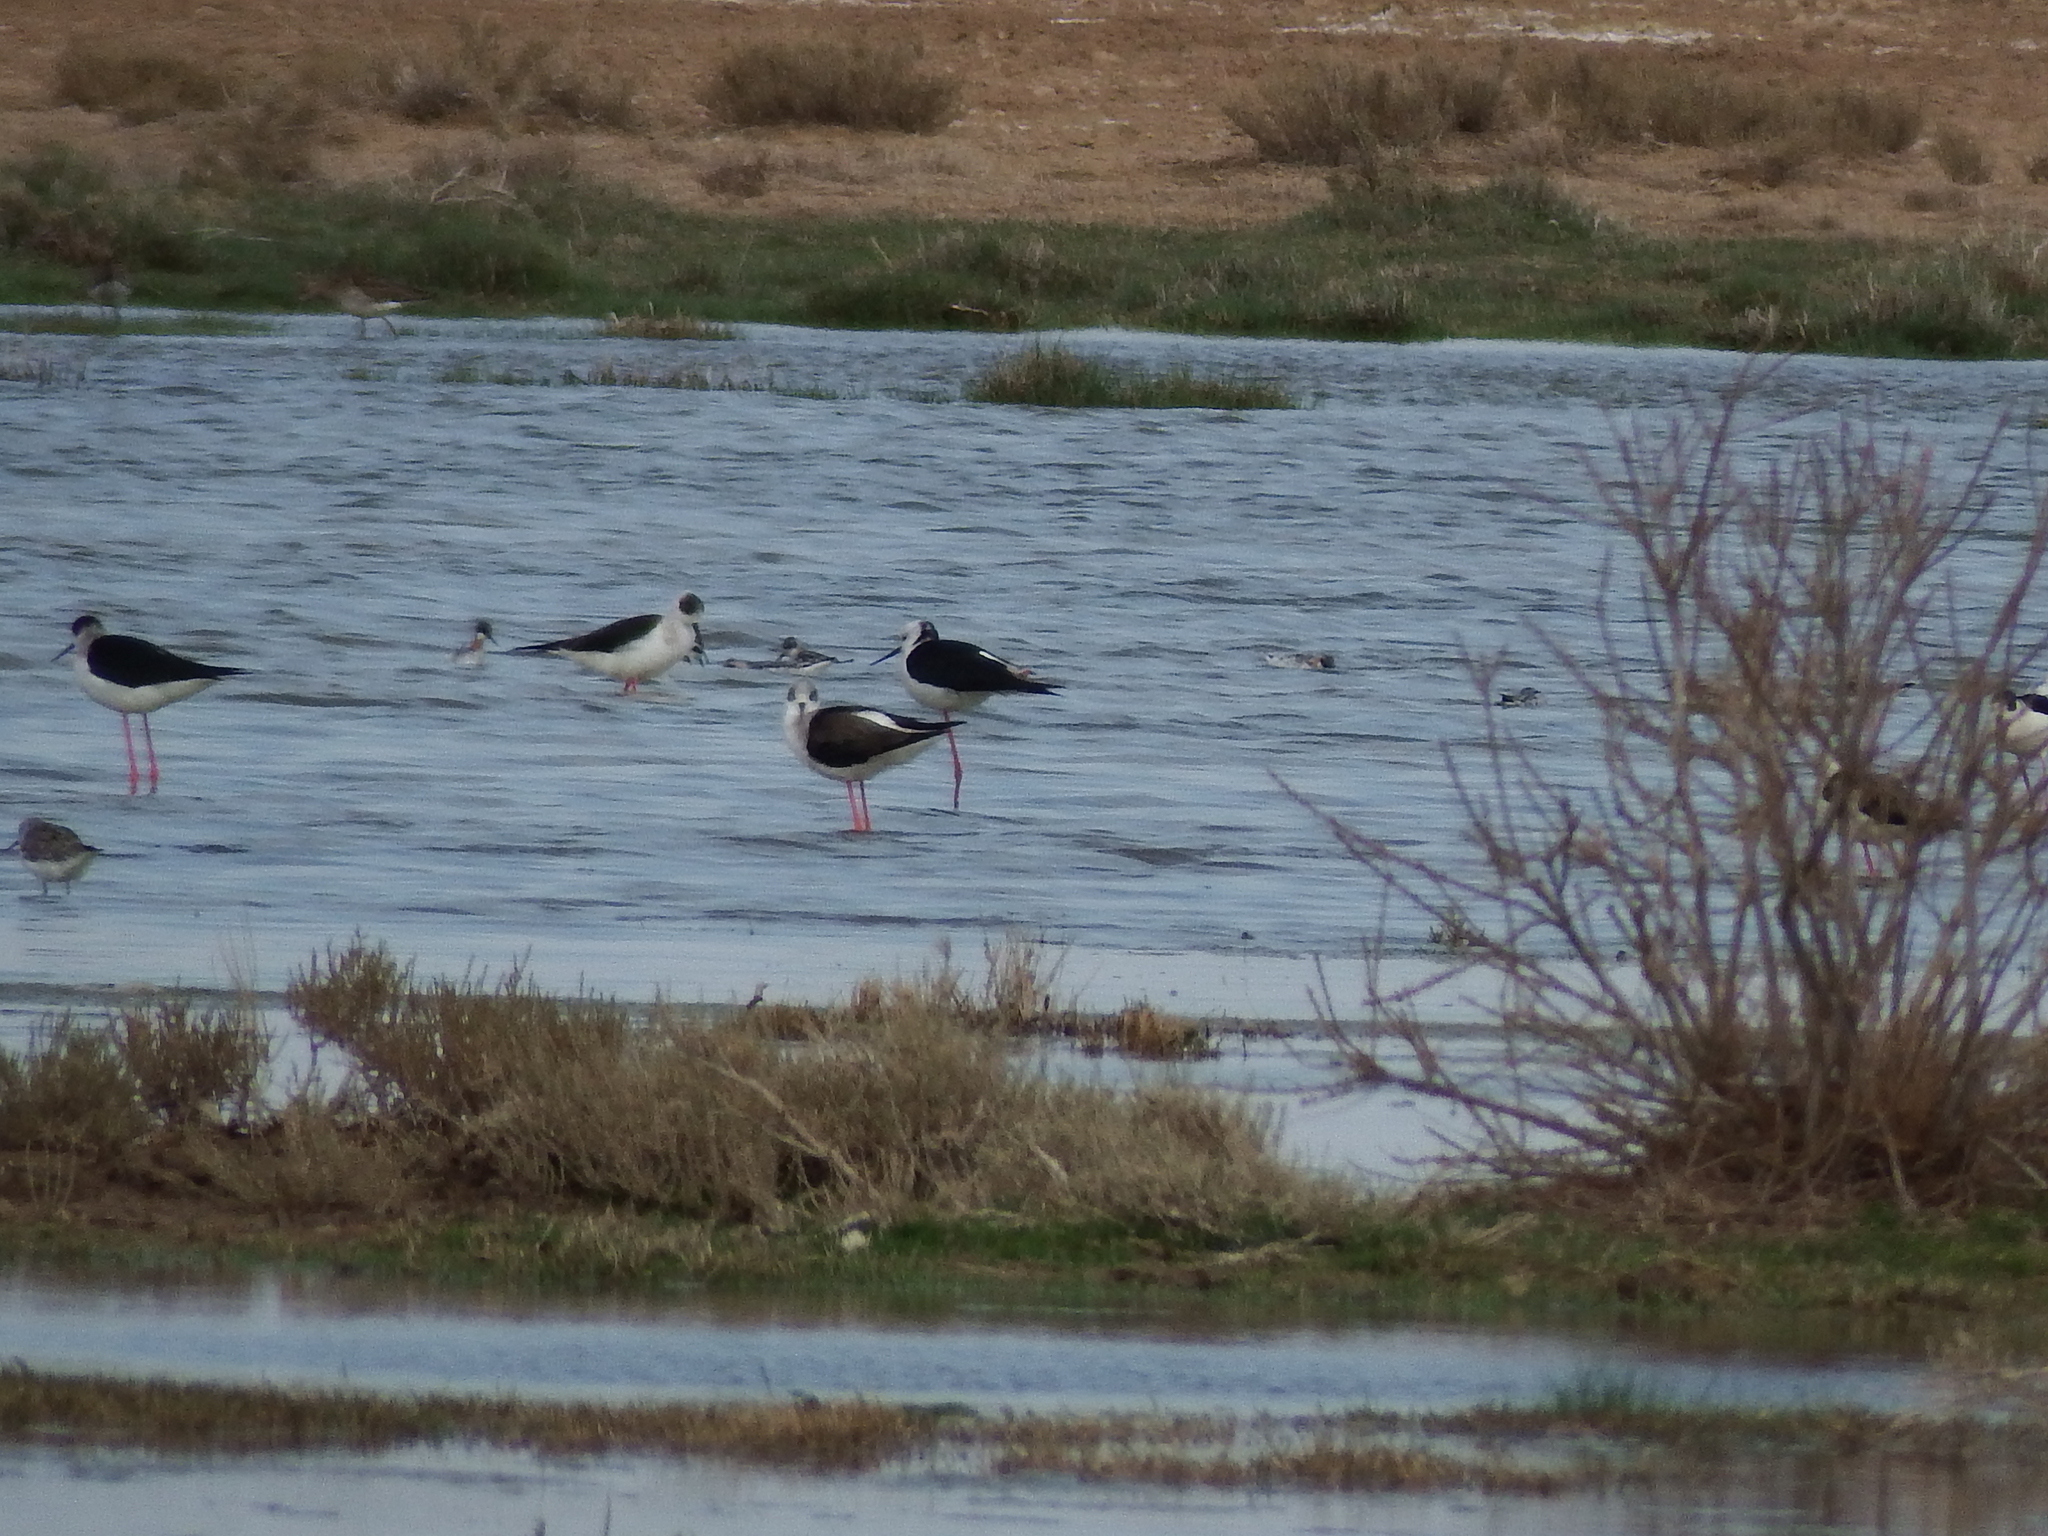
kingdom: Animalia
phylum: Chordata
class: Aves
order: Charadriiformes
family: Scolopacidae
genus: Phalaropus
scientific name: Phalaropus lobatus
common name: Red-necked phalarope
